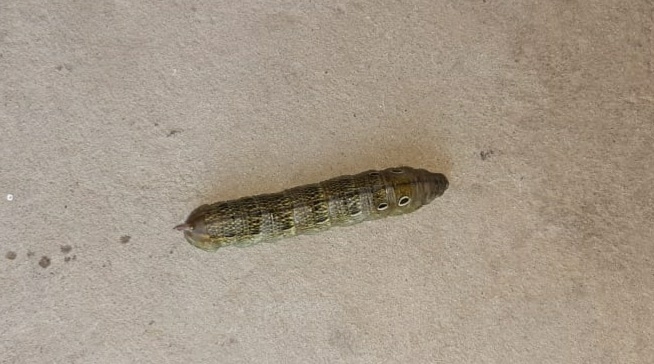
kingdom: Animalia
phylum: Arthropoda
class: Insecta
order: Lepidoptera
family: Sphingidae
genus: Theretra
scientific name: Theretra alecto
